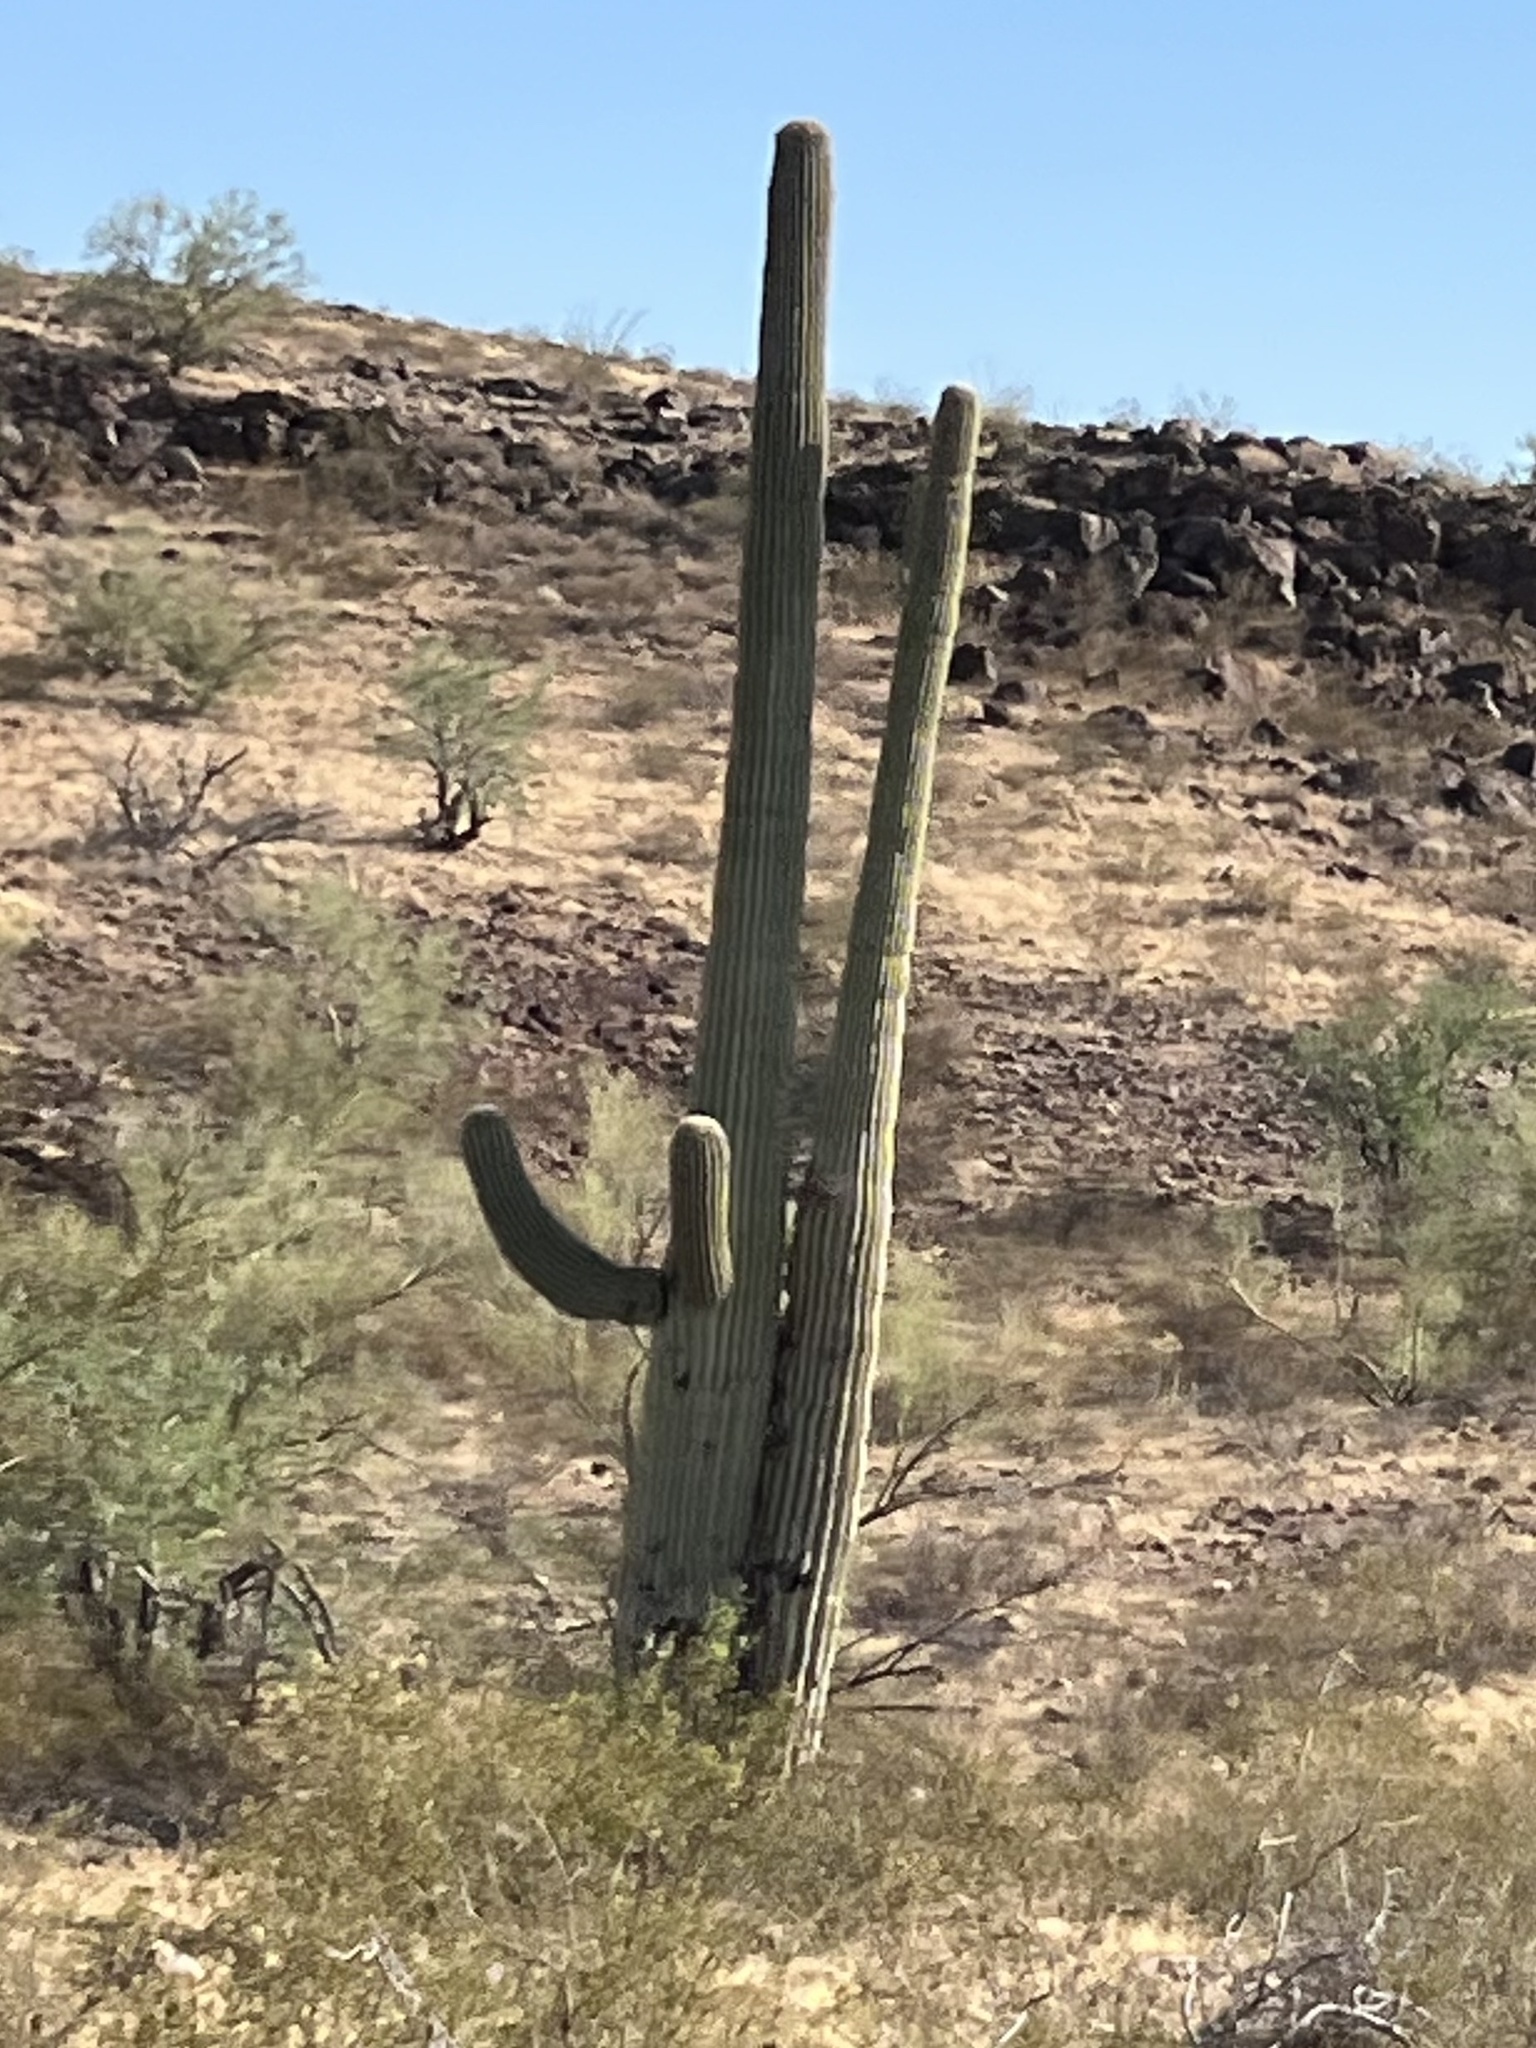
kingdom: Plantae
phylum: Tracheophyta
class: Magnoliopsida
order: Caryophyllales
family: Cactaceae
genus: Carnegiea
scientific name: Carnegiea gigantea
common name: Saguaro
